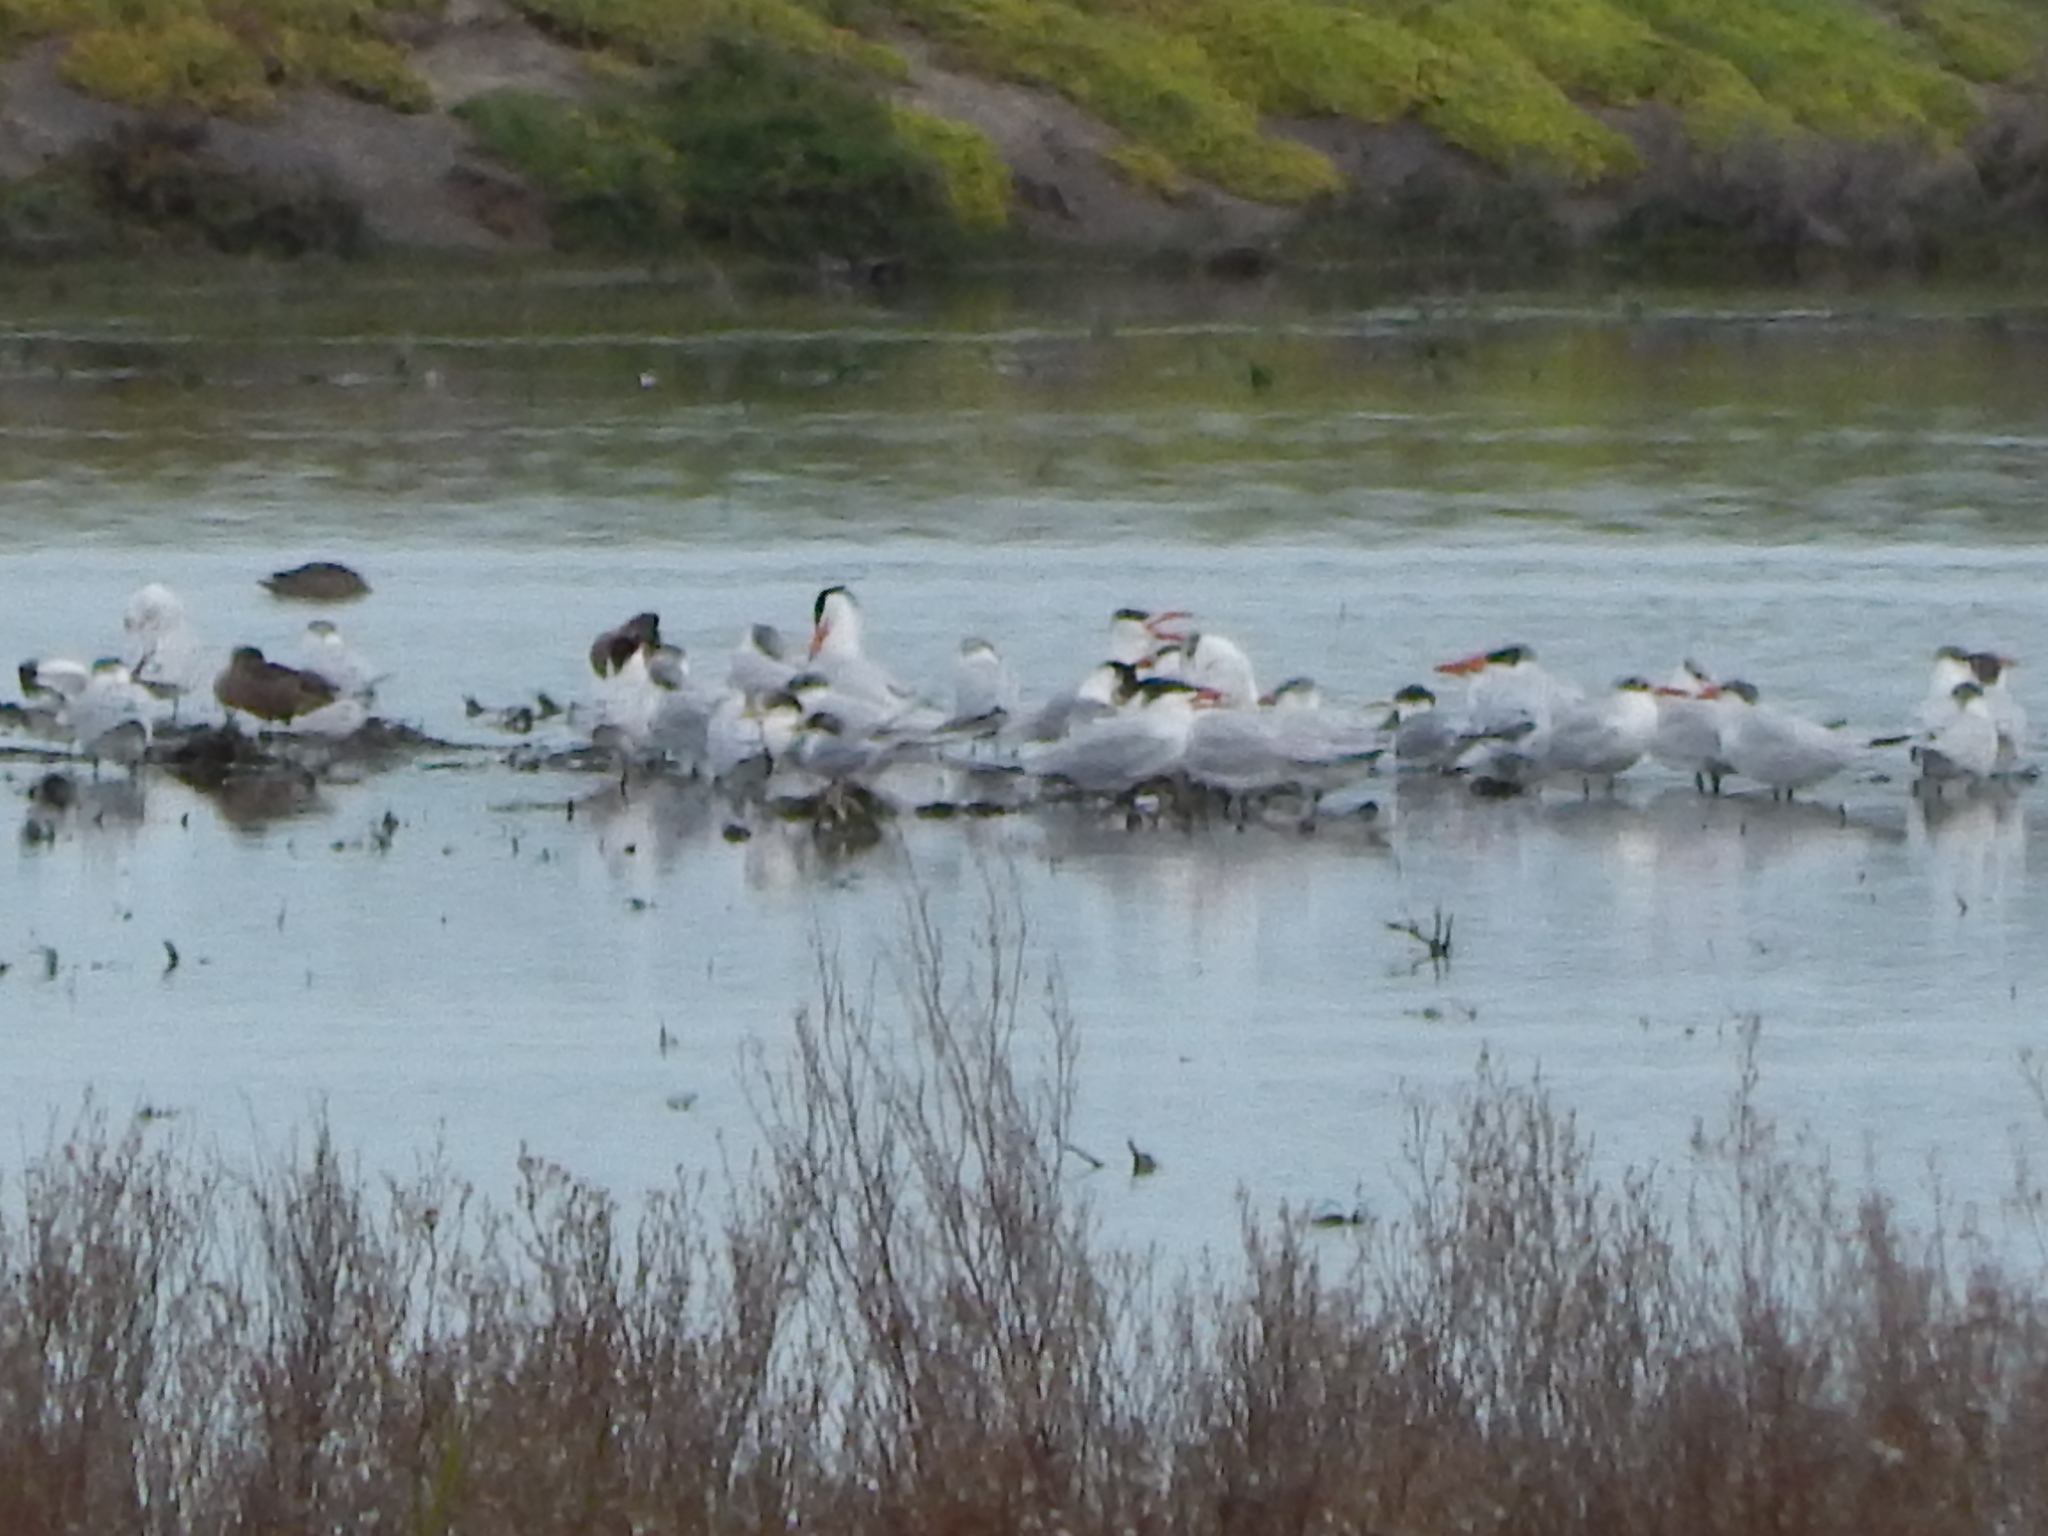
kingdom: Animalia
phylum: Chordata
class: Aves
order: Charadriiformes
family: Laridae
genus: Hydroprogne
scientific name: Hydroprogne caspia
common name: Caspian tern
